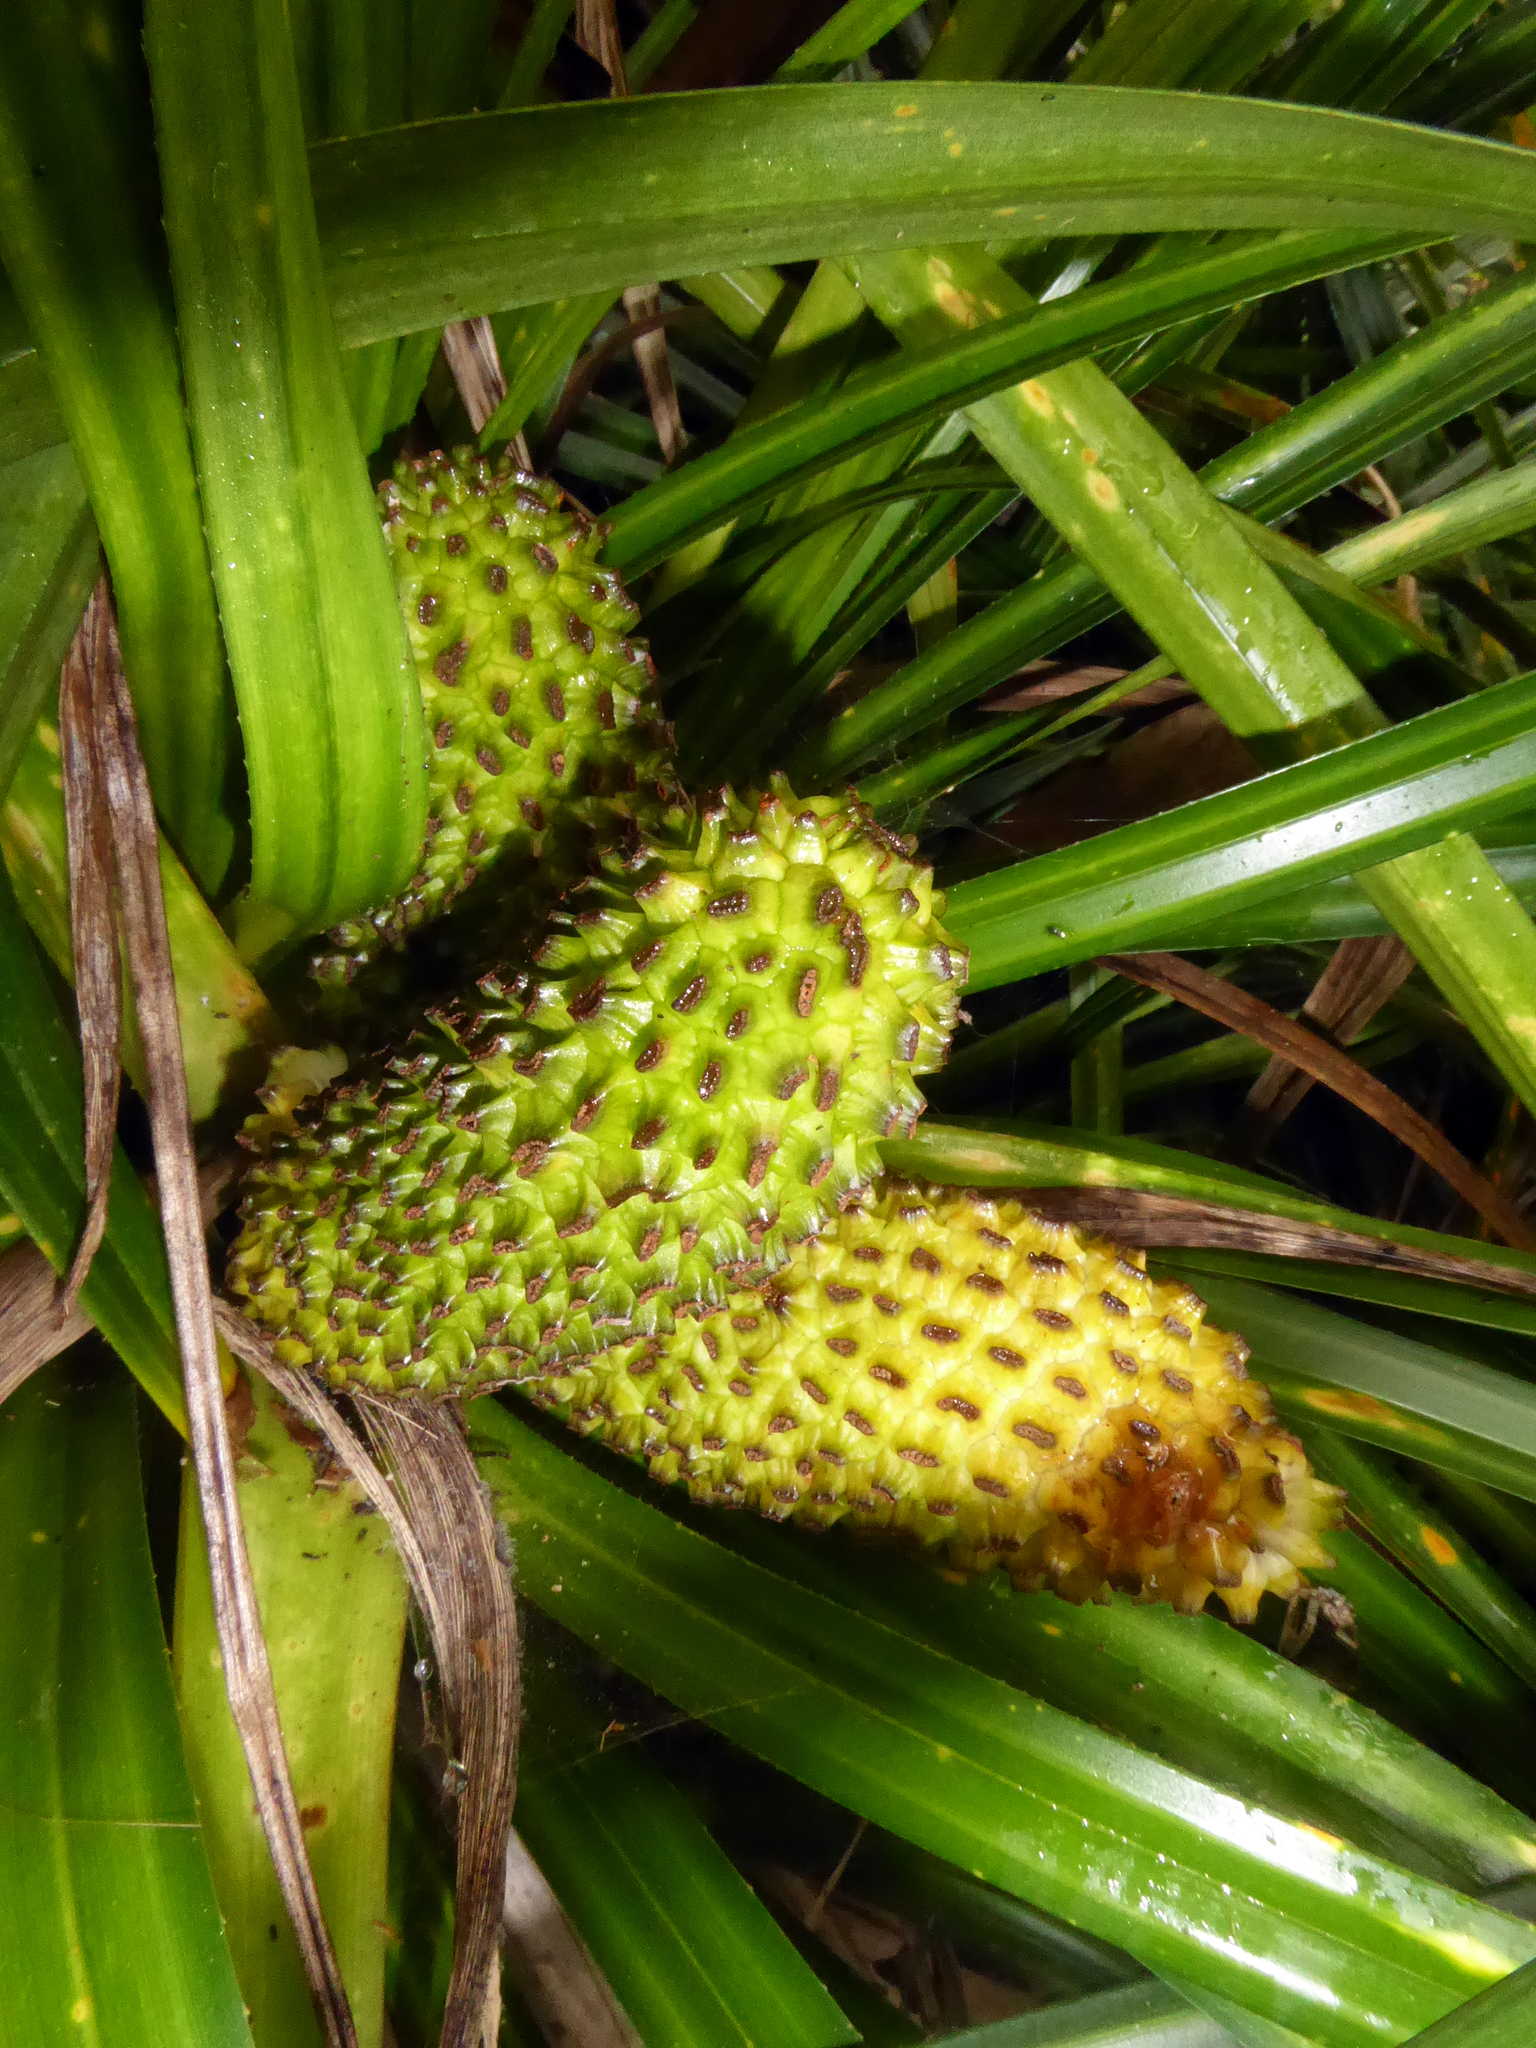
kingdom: Plantae
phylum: Tracheophyta
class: Liliopsida
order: Pandanales
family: Pandanaceae
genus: Freycinetia
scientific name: Freycinetia banksii
